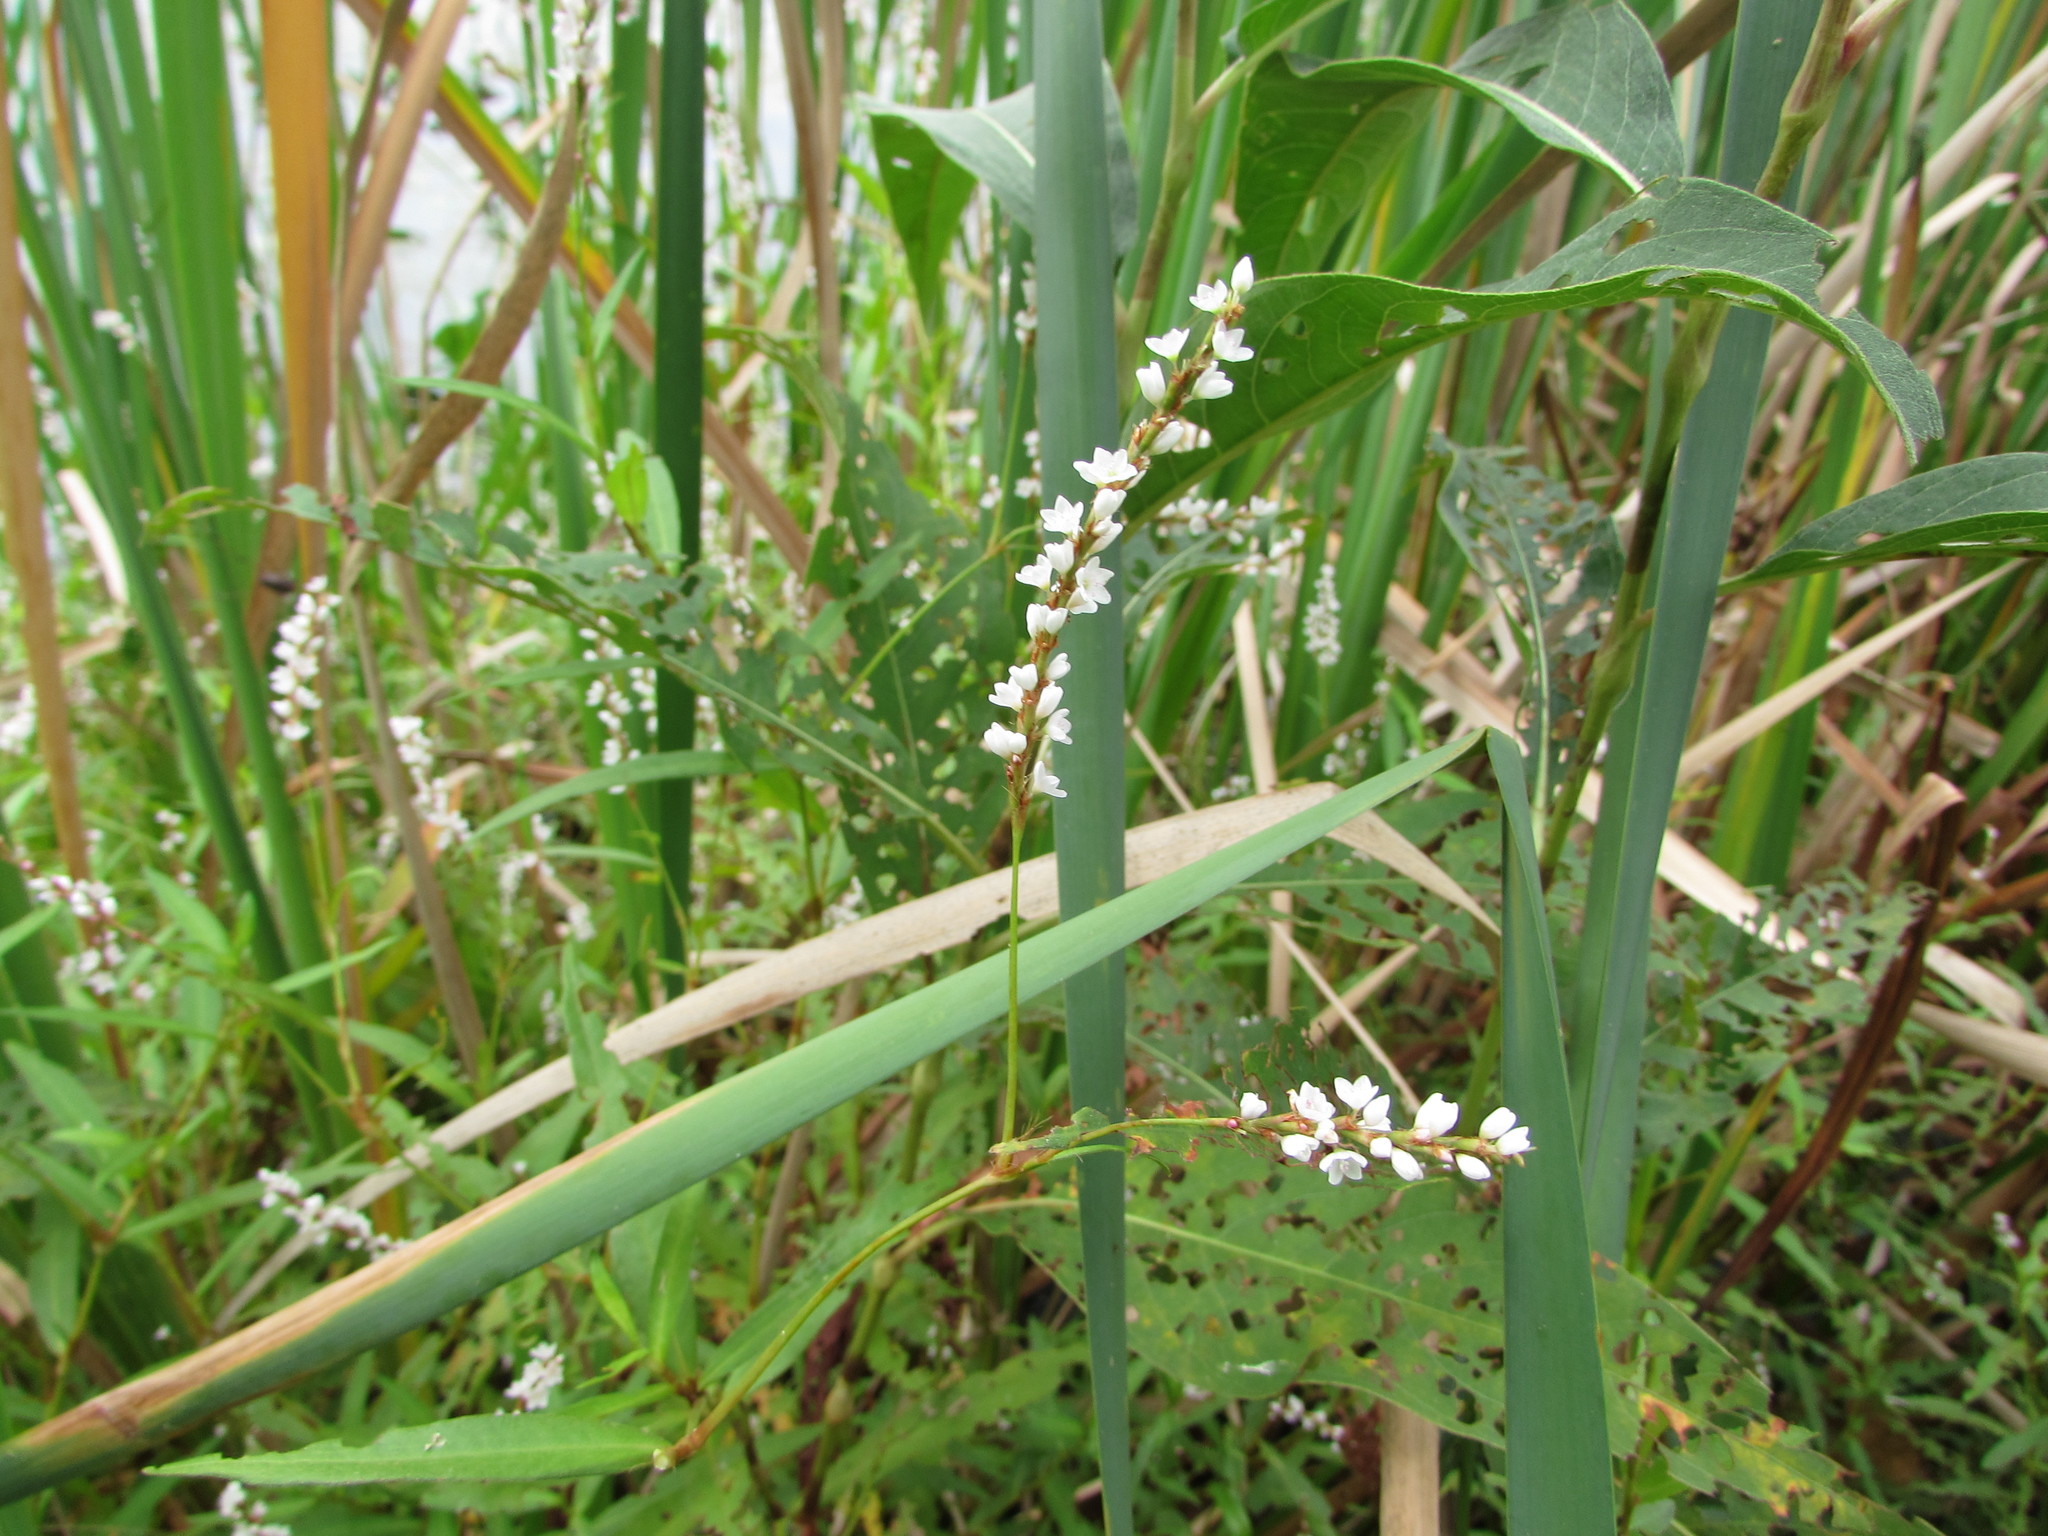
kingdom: Plantae
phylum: Tracheophyta
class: Magnoliopsida
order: Caryophyllales
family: Polygonaceae
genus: Persicaria
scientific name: Persicaria hydropiperoides
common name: Swamp smartweed
